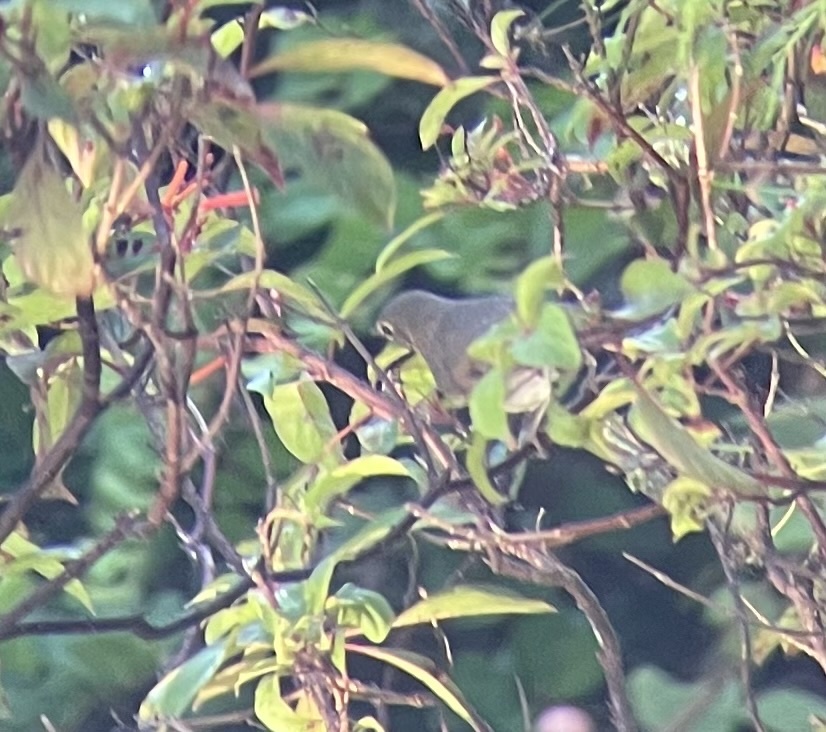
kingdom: Animalia
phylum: Chordata
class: Aves
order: Passeriformes
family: Turdidae
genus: Catharus
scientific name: Catharus ustulatus
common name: Swainson's thrush
